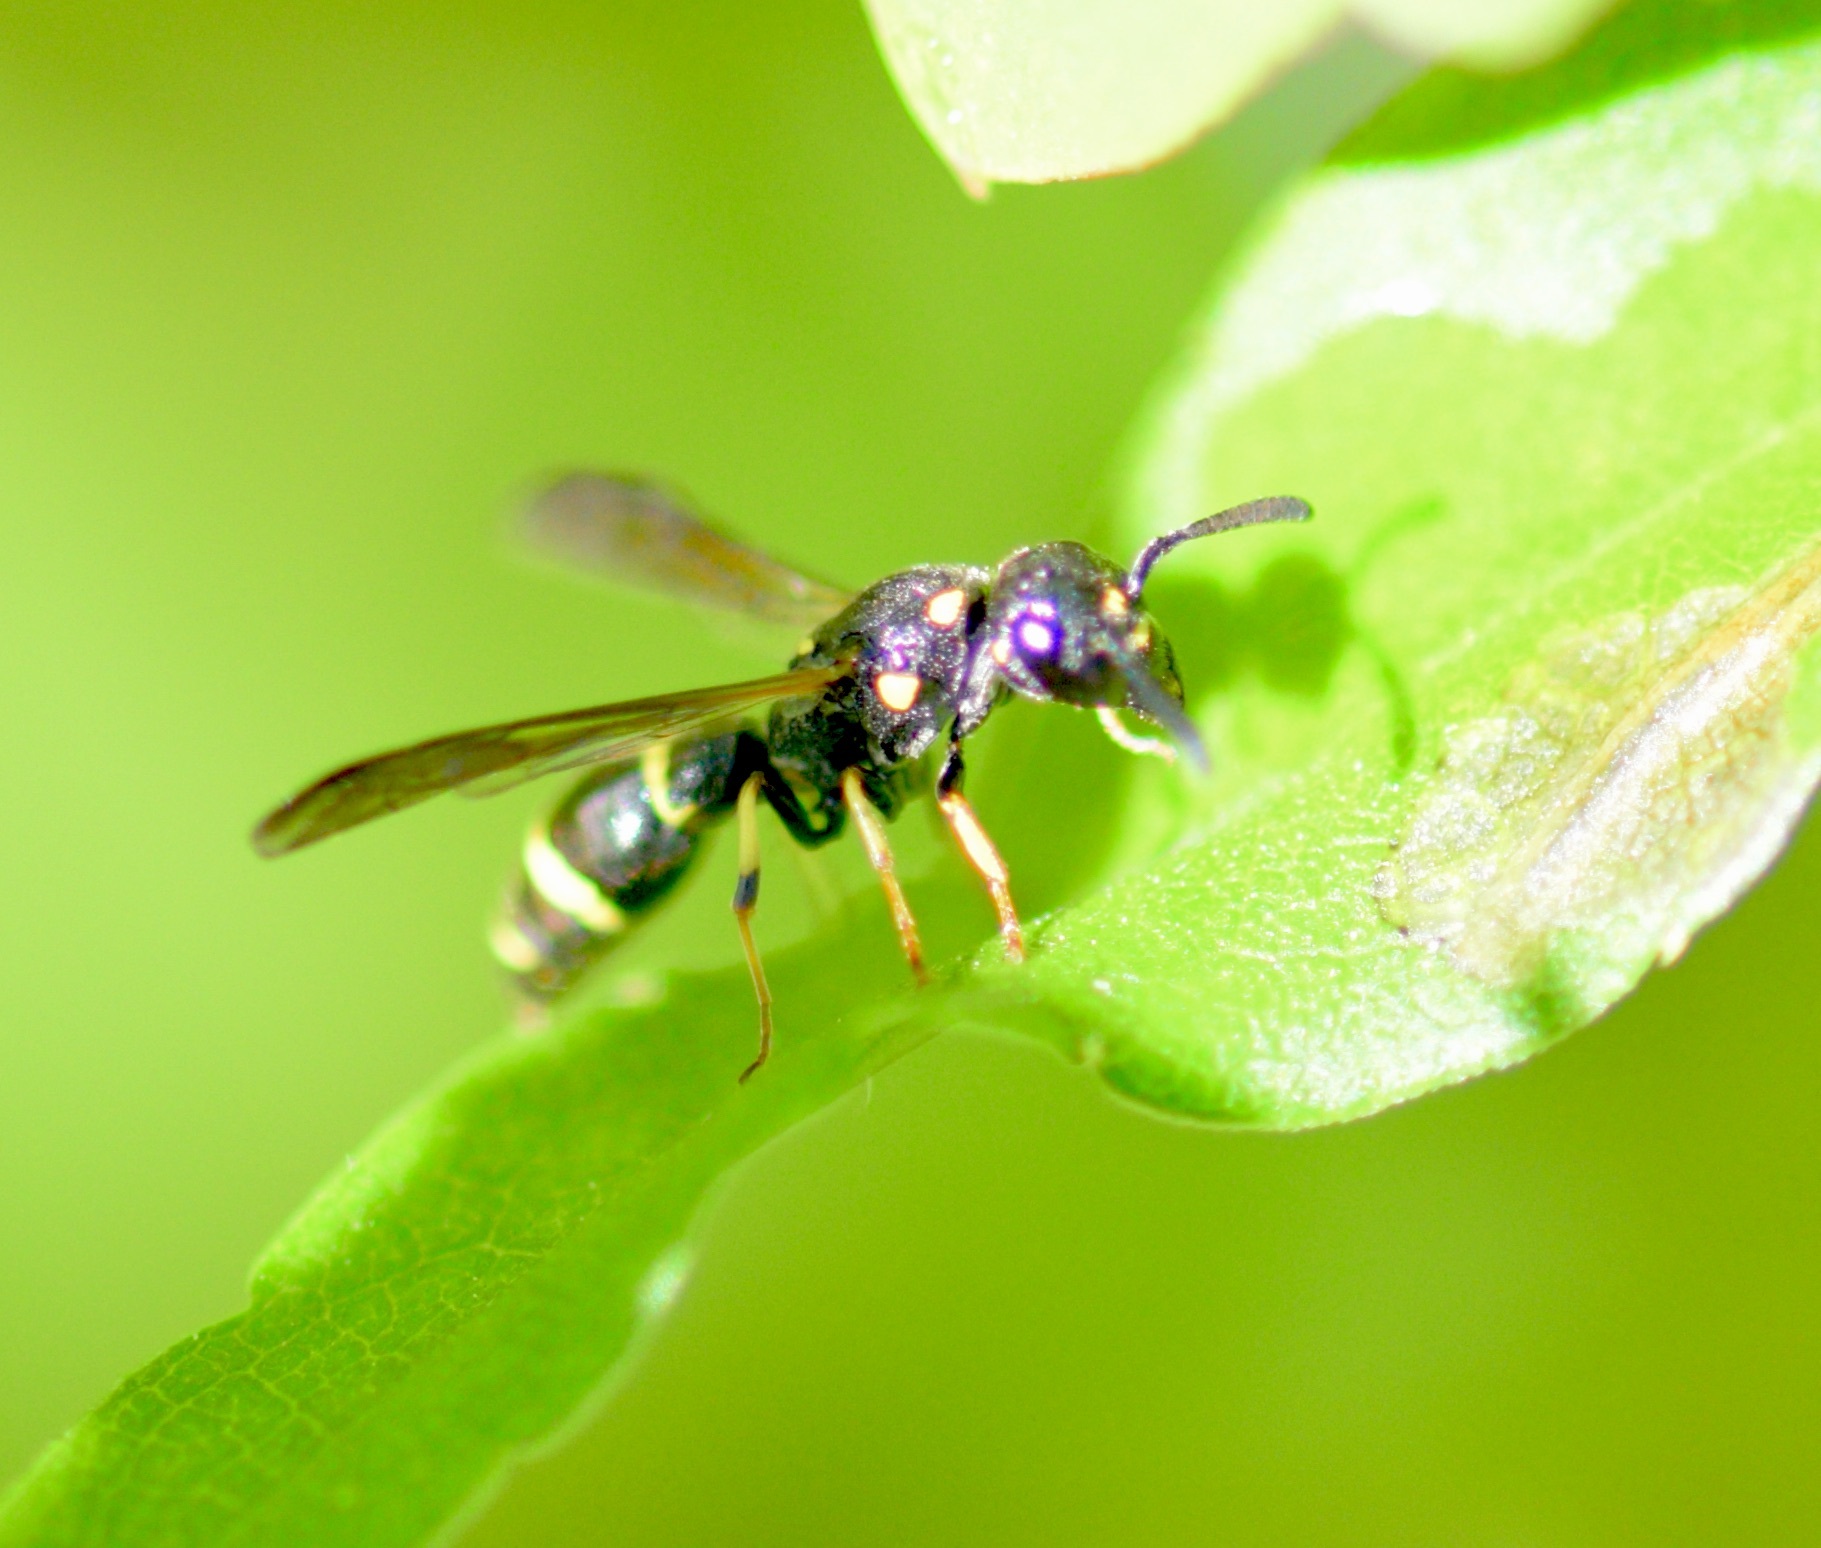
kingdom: Animalia
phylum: Arthropoda
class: Insecta
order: Hymenoptera
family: Eumenidae
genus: Symmorphus
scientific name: Symmorphus
